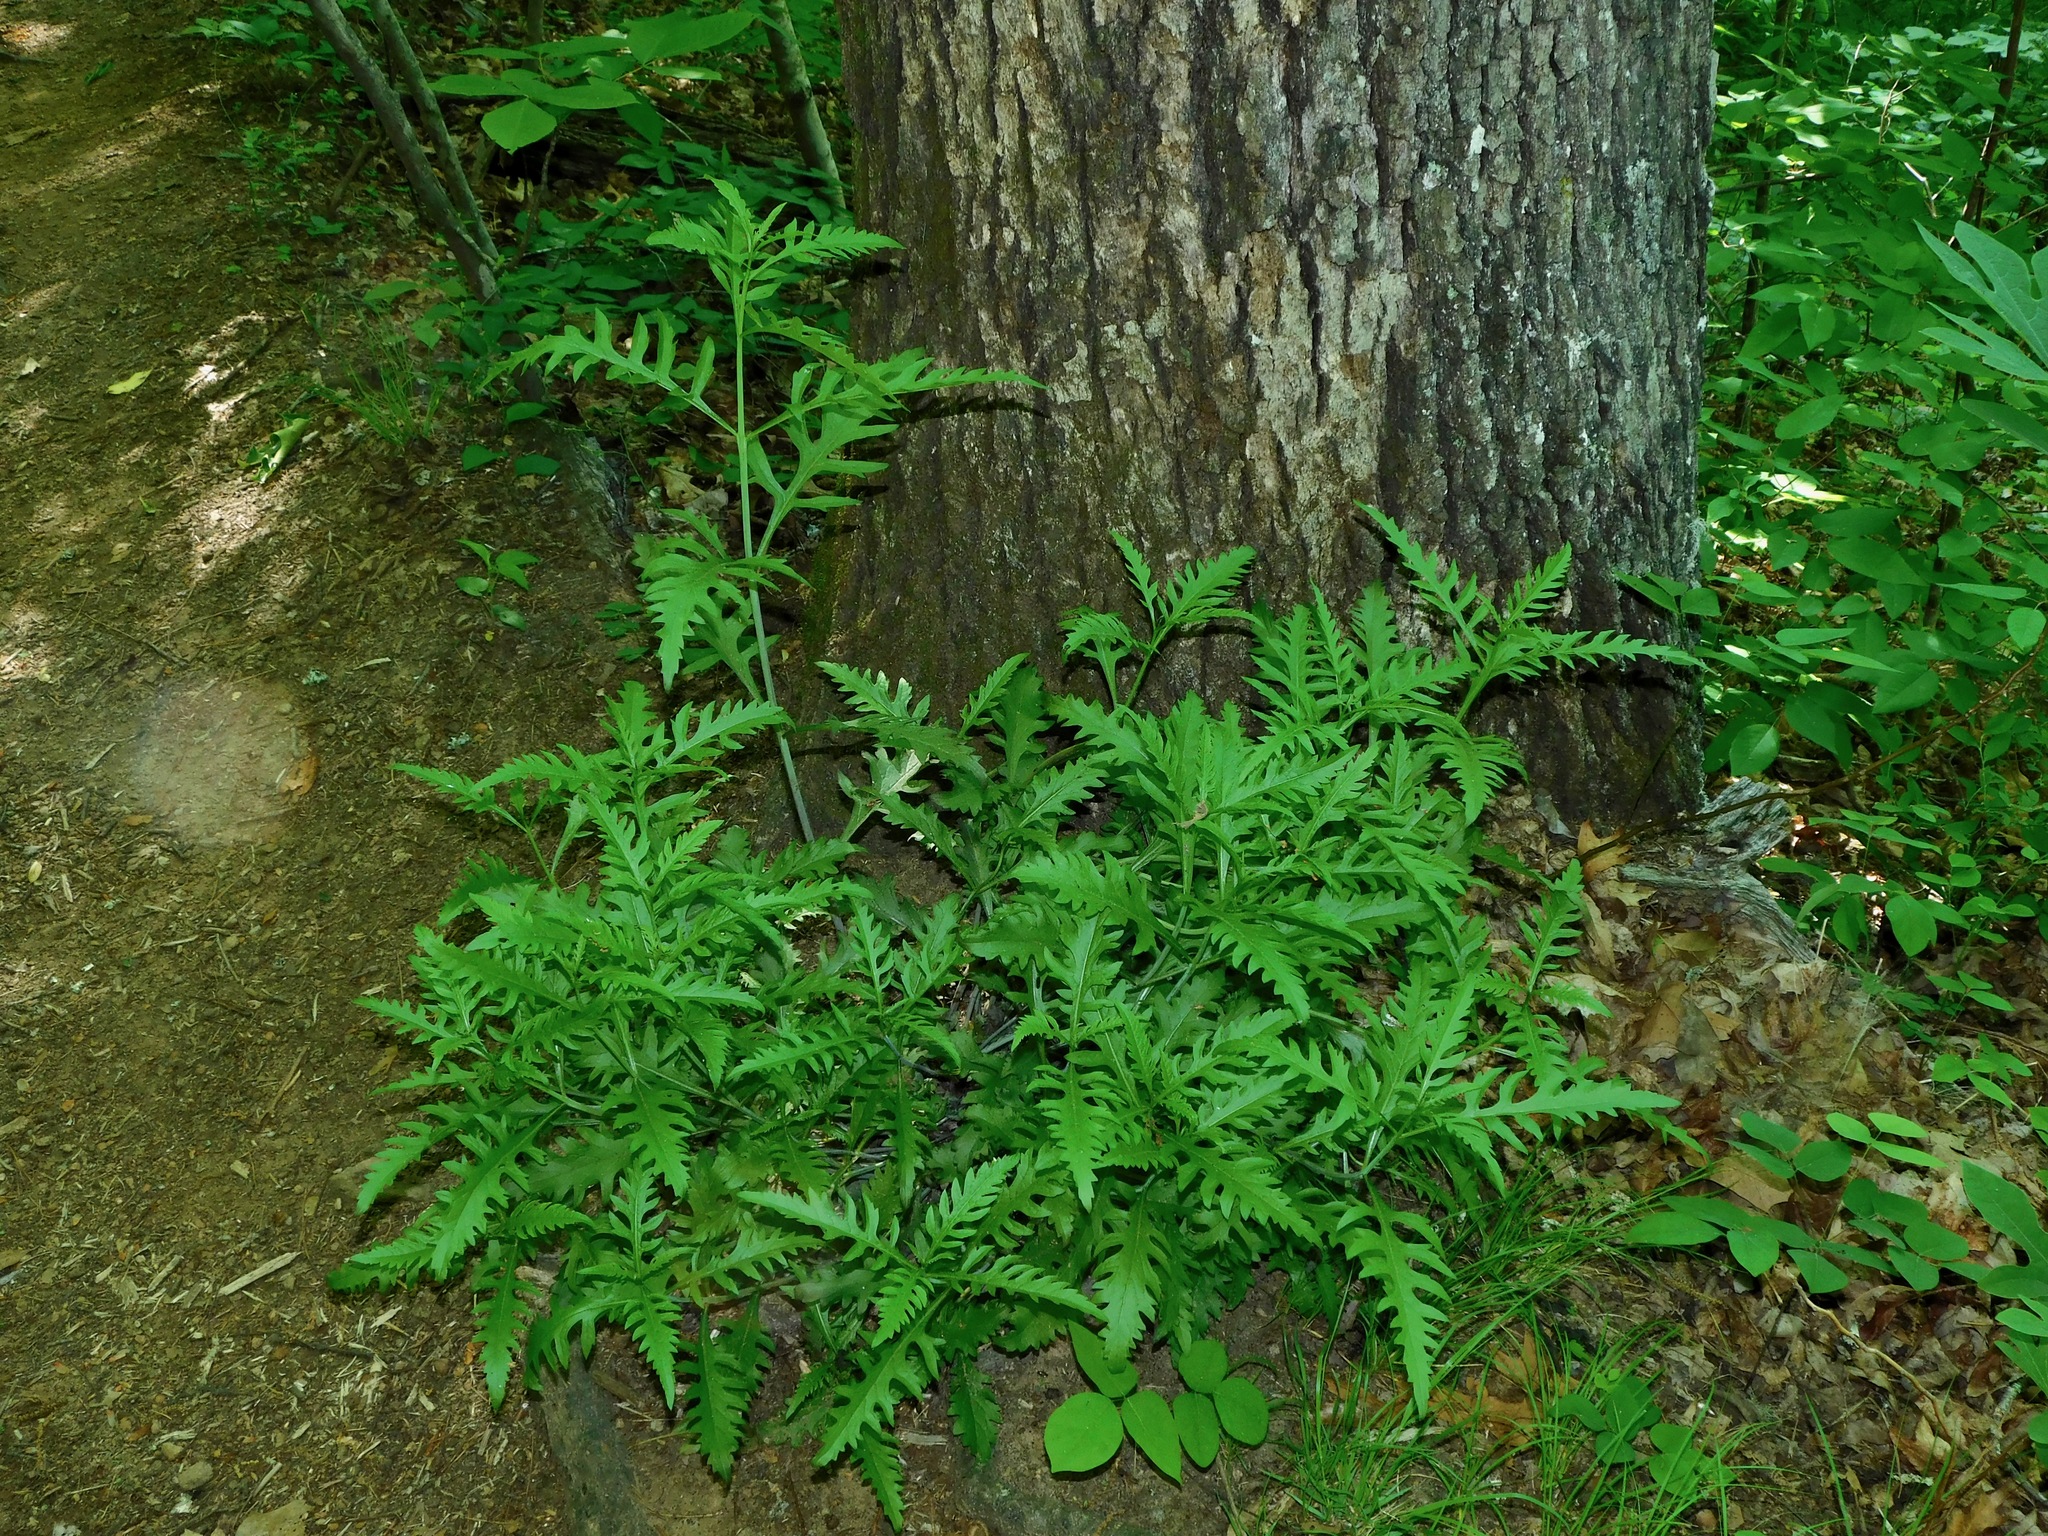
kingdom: Plantae
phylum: Tracheophyta
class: Magnoliopsida
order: Lamiales
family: Orobanchaceae
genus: Aureolaria
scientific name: Aureolaria pedicularia
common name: Annual false foxglove
